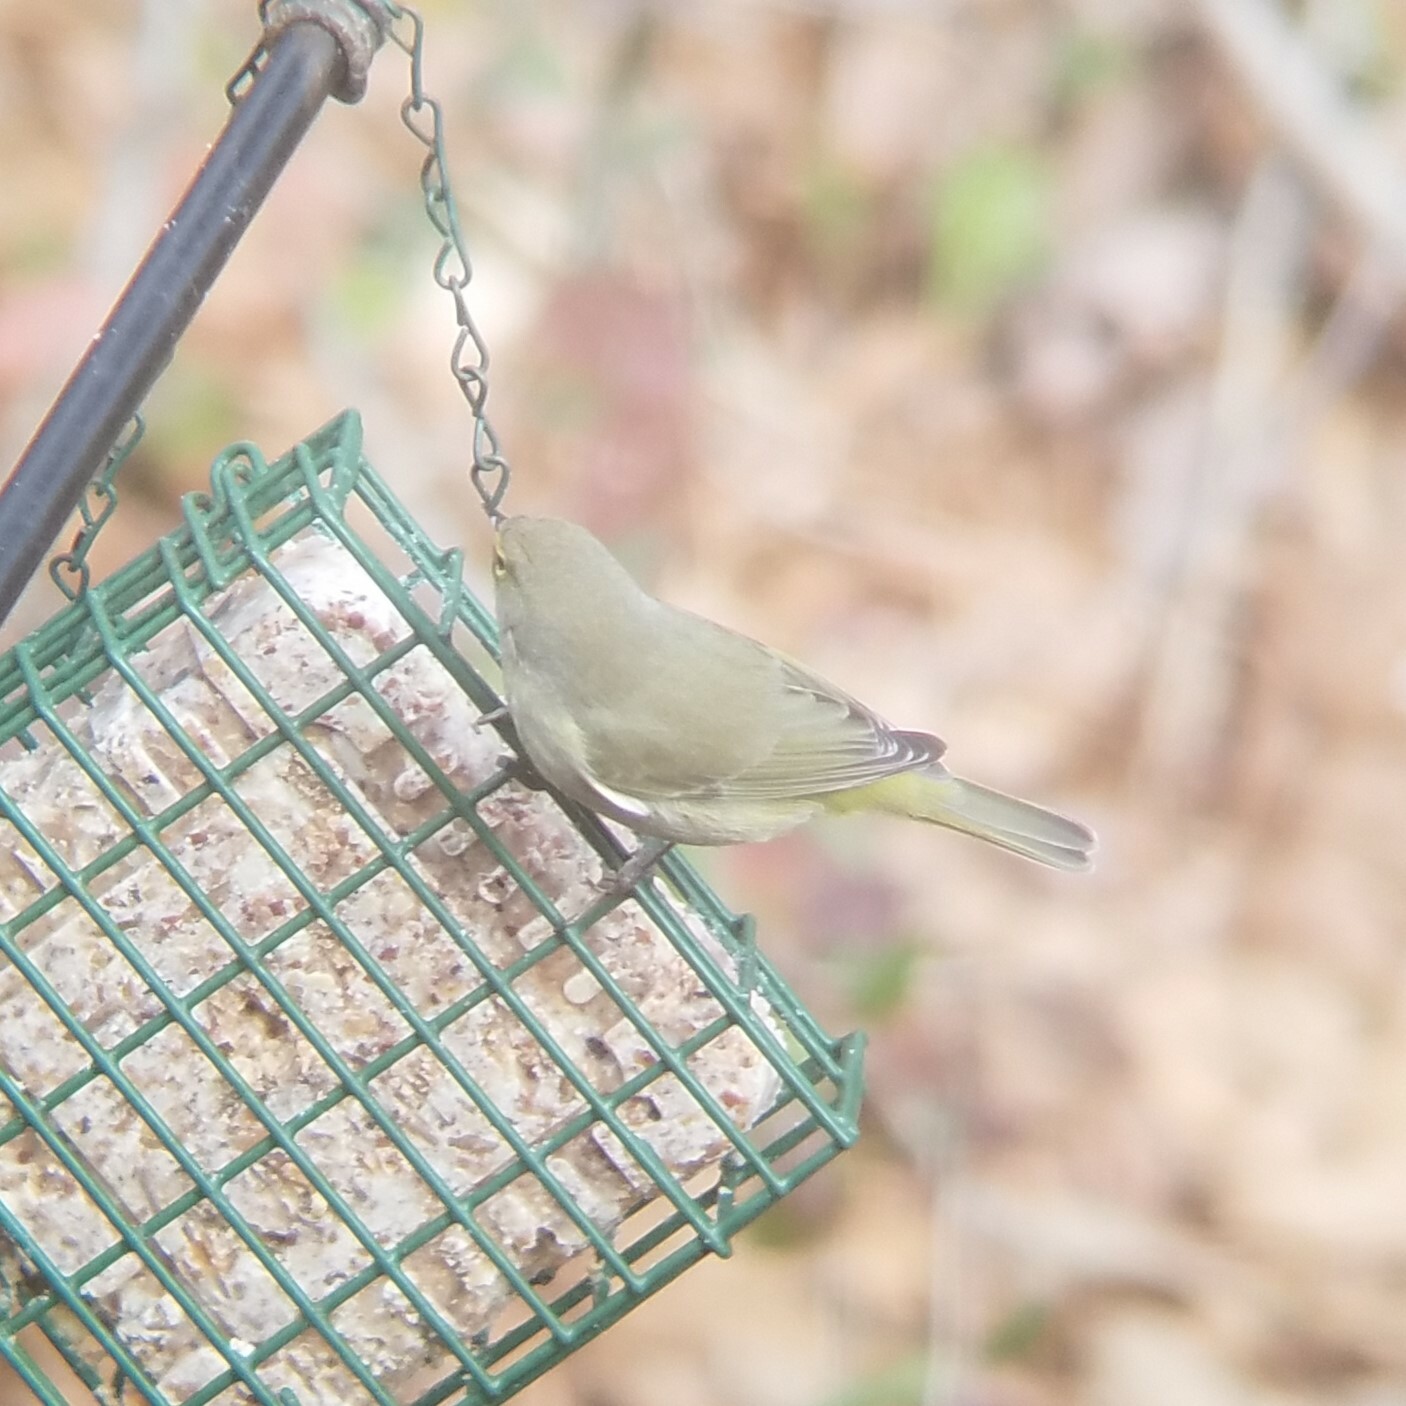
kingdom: Animalia
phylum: Chordata
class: Aves
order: Passeriformes
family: Parulidae
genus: Leiothlypis
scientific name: Leiothlypis celata
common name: Orange-crowned warbler
